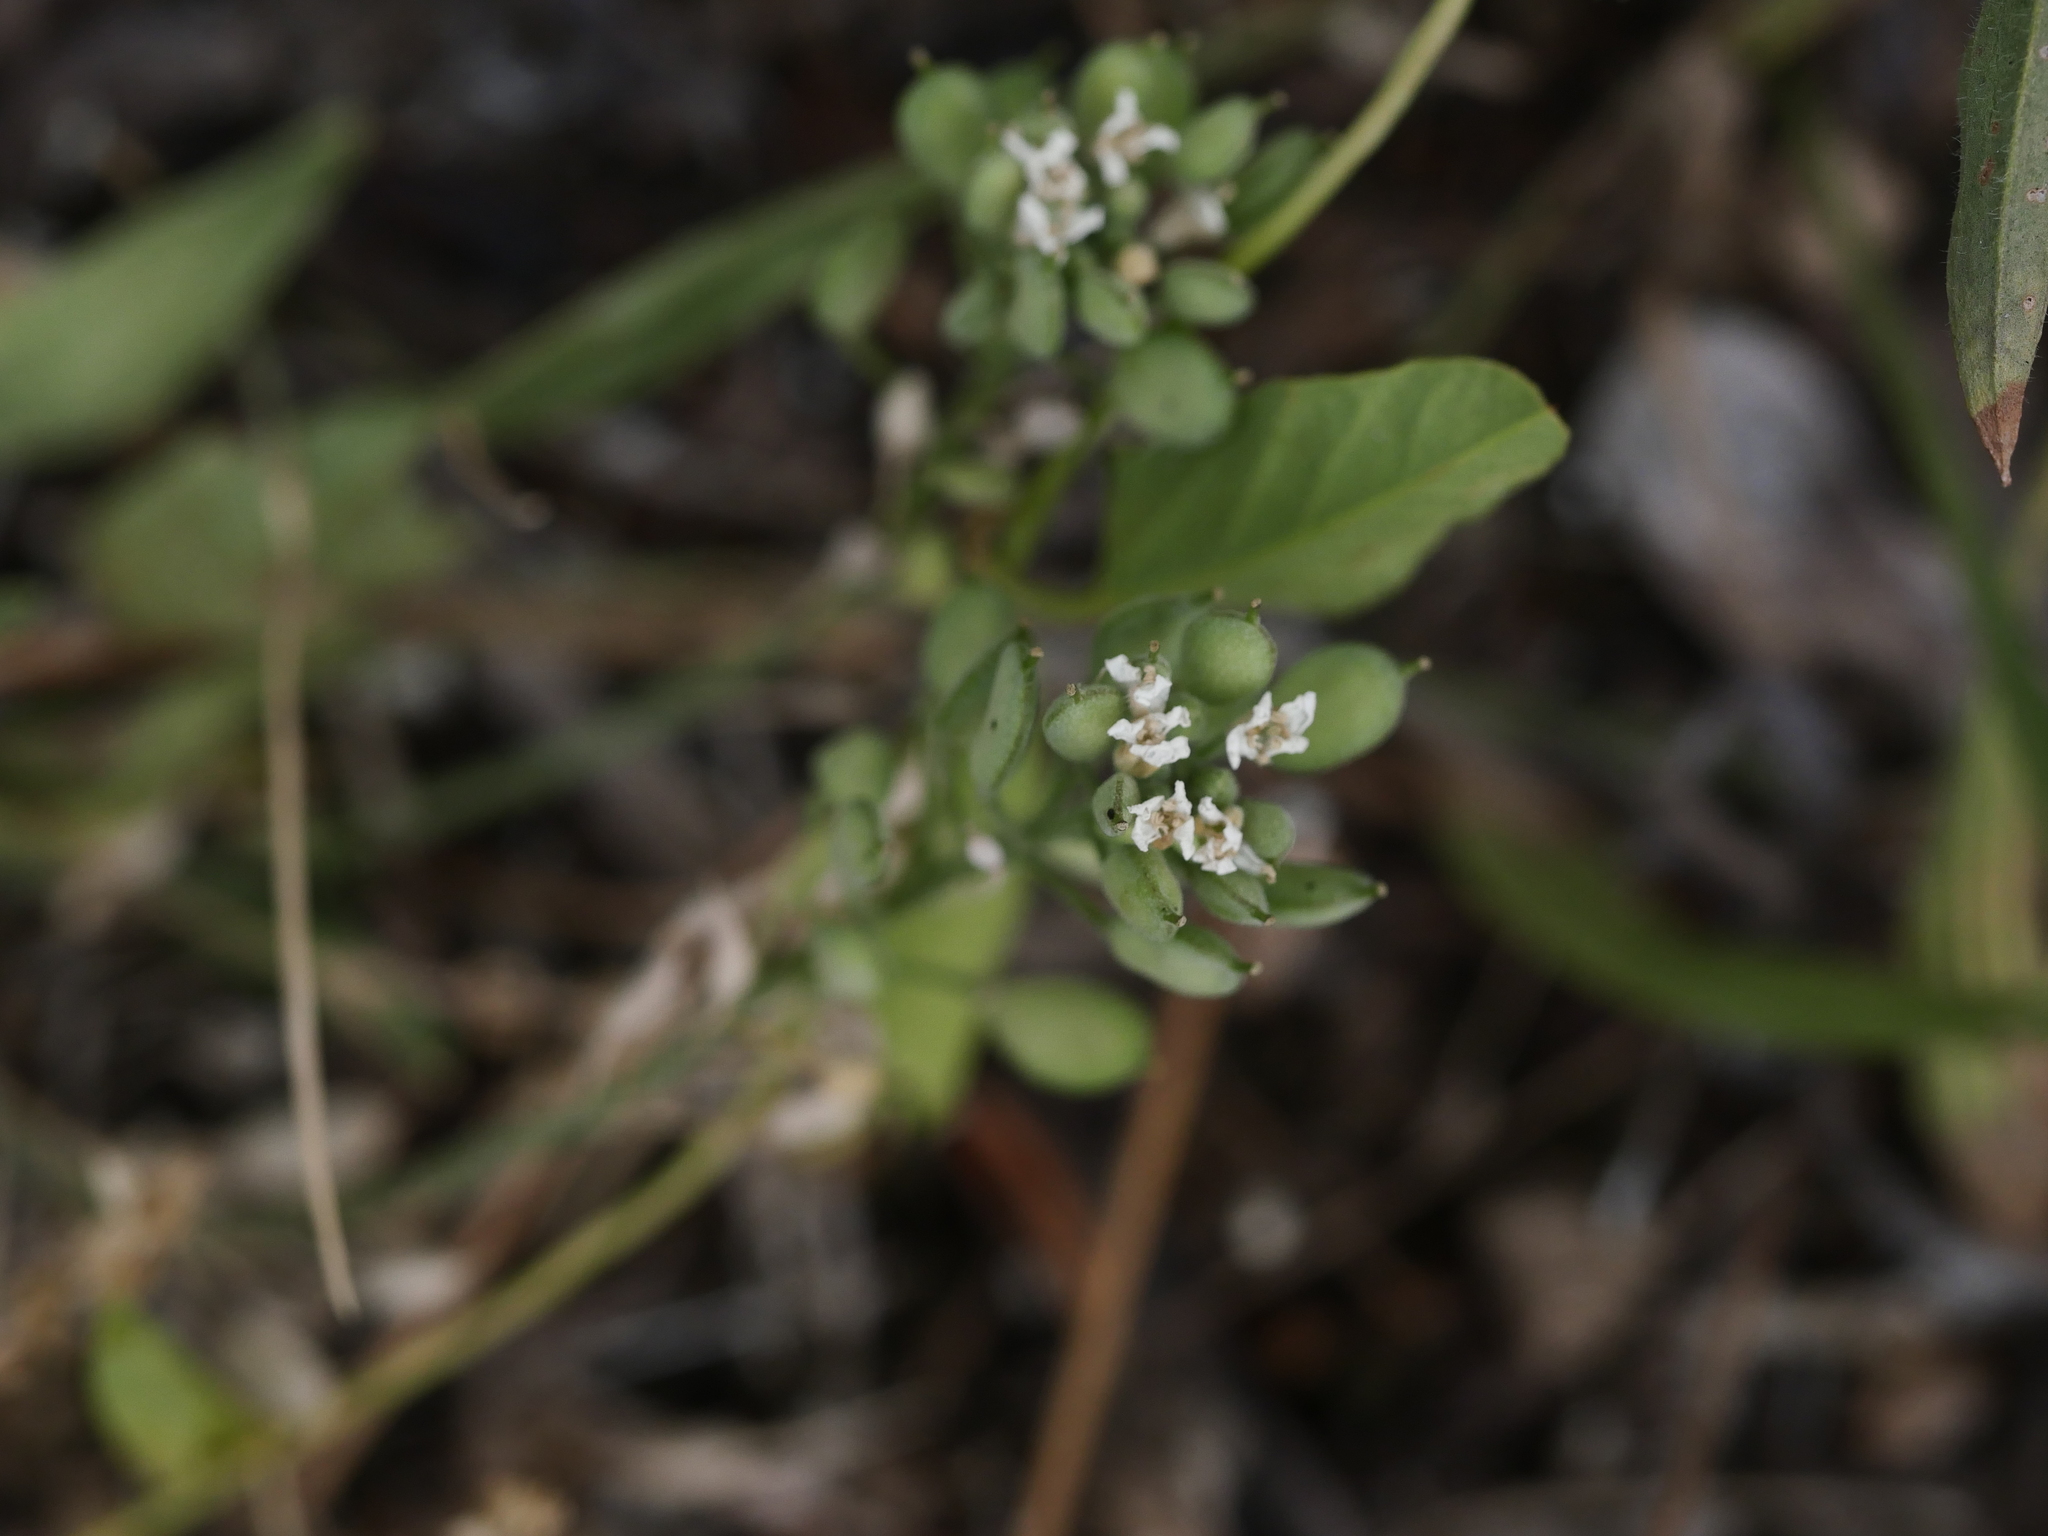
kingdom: Plantae
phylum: Tracheophyta
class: Magnoliopsida
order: Brassicales
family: Brassicaceae
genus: Berteroa
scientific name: Berteroa incana
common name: Hoary alison
